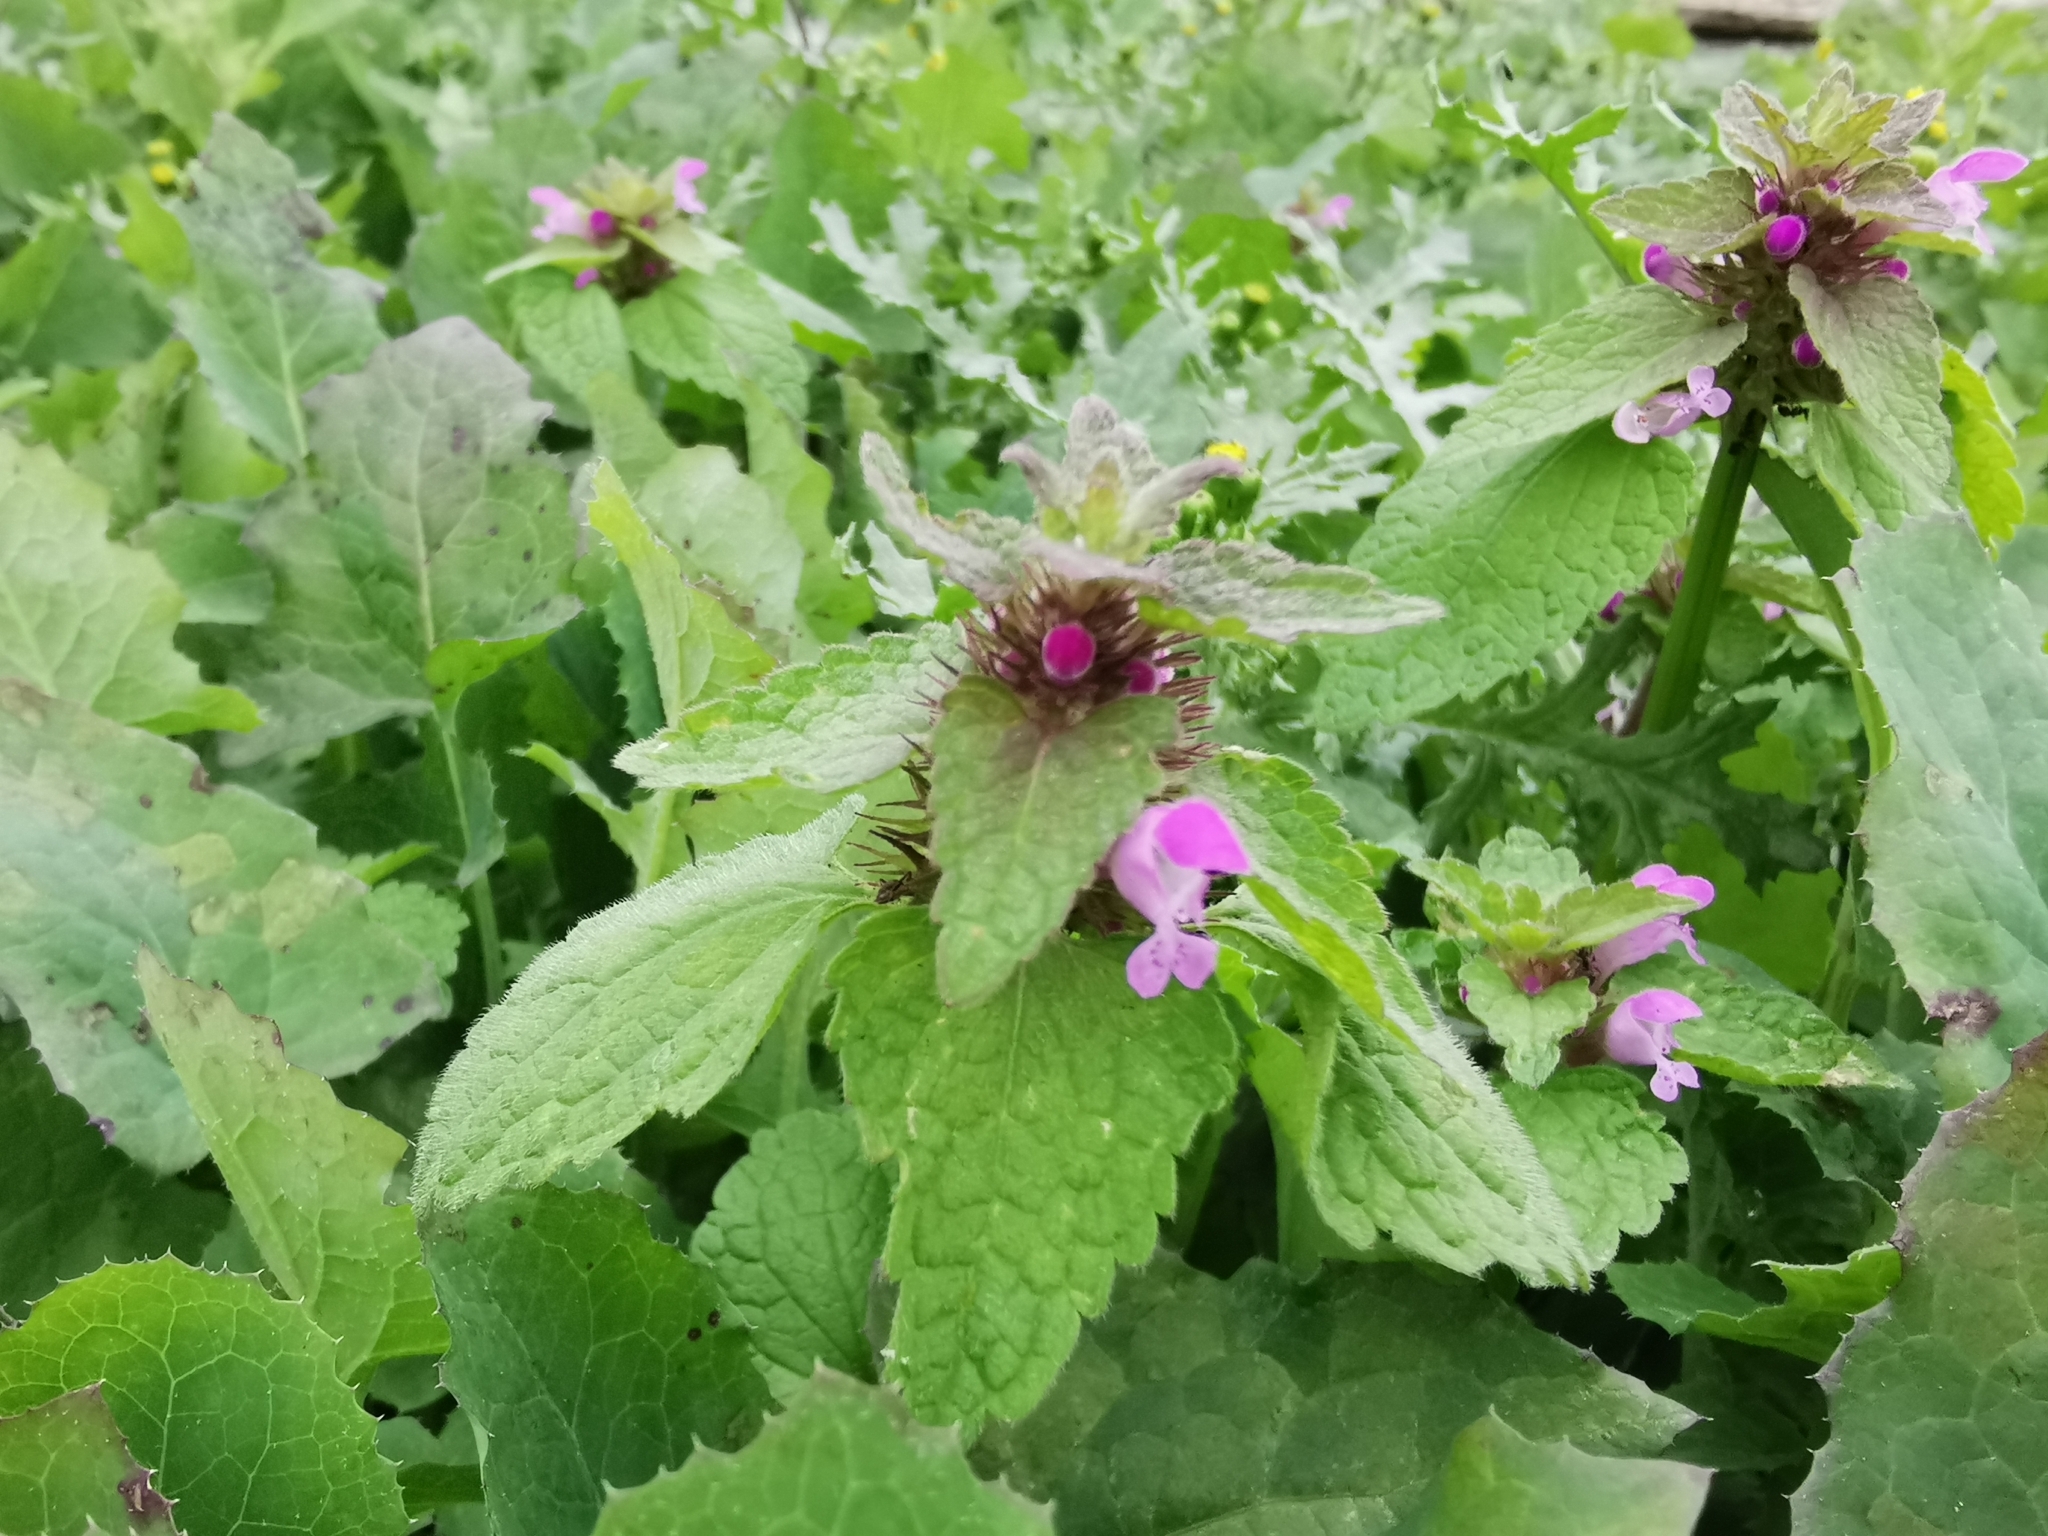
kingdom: Plantae
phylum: Tracheophyta
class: Magnoliopsida
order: Lamiales
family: Lamiaceae
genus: Lamium
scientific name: Lamium purpureum
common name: Red dead-nettle
